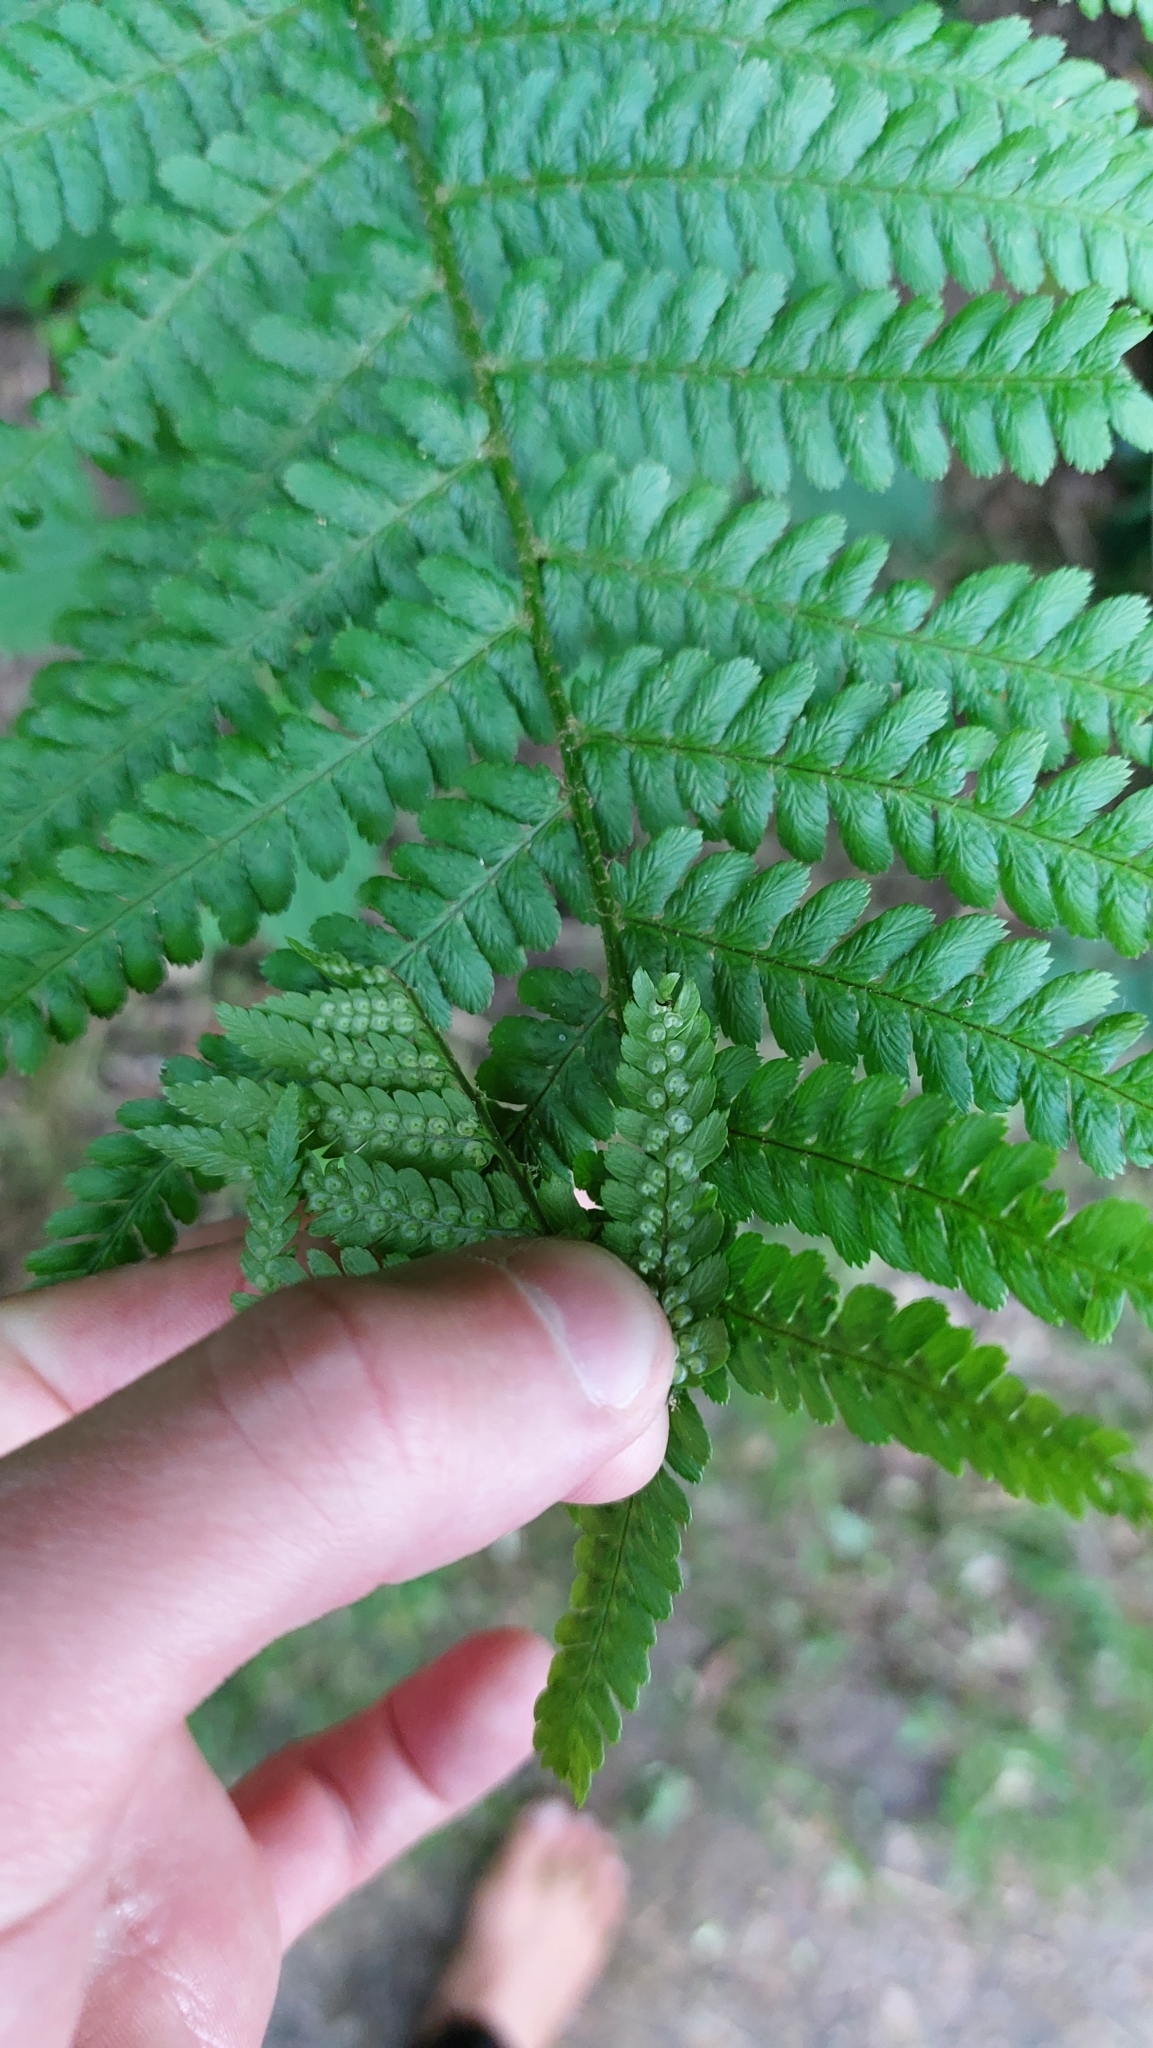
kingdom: Plantae
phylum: Tracheophyta
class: Polypodiopsida
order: Polypodiales
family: Dryopteridaceae
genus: Dryopteris
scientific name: Dryopteris filix-mas
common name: Male fern
